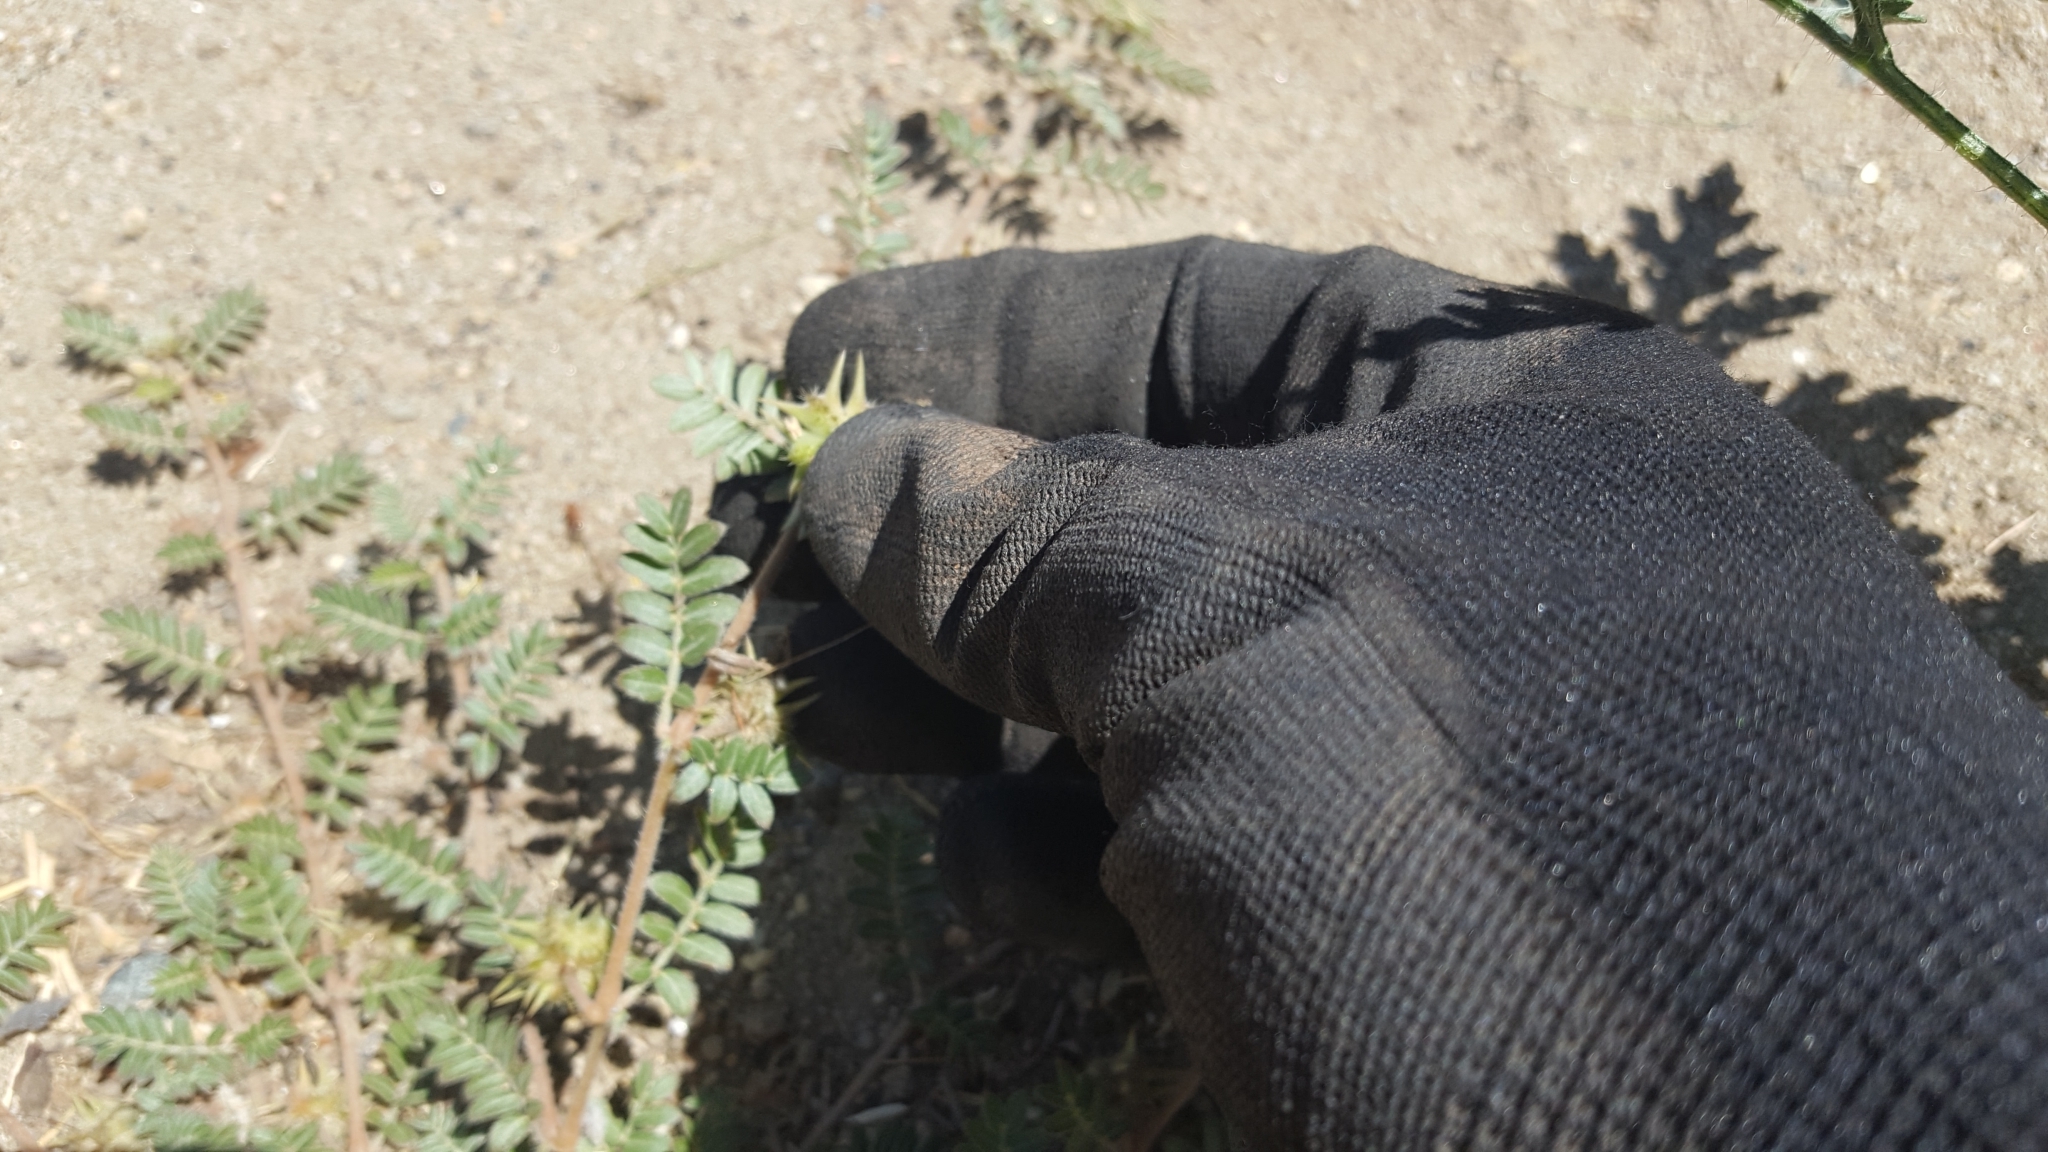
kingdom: Plantae
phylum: Tracheophyta
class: Magnoliopsida
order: Zygophyllales
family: Zygophyllaceae
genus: Tribulus
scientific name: Tribulus terrestris
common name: Puncturevine
